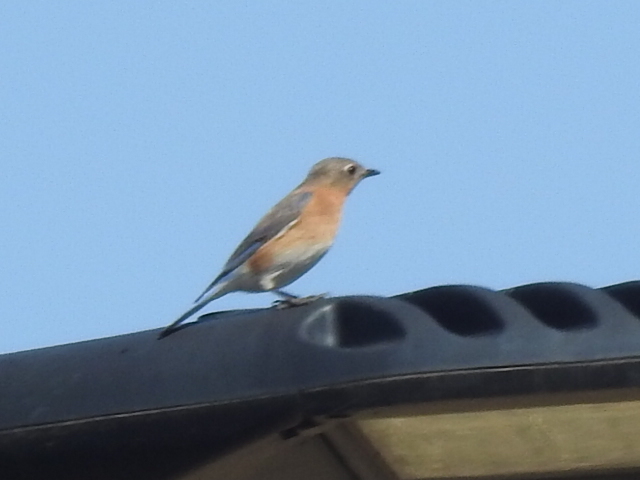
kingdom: Animalia
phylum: Chordata
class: Aves
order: Passeriformes
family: Turdidae
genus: Sialia
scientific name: Sialia sialis
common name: Eastern bluebird
